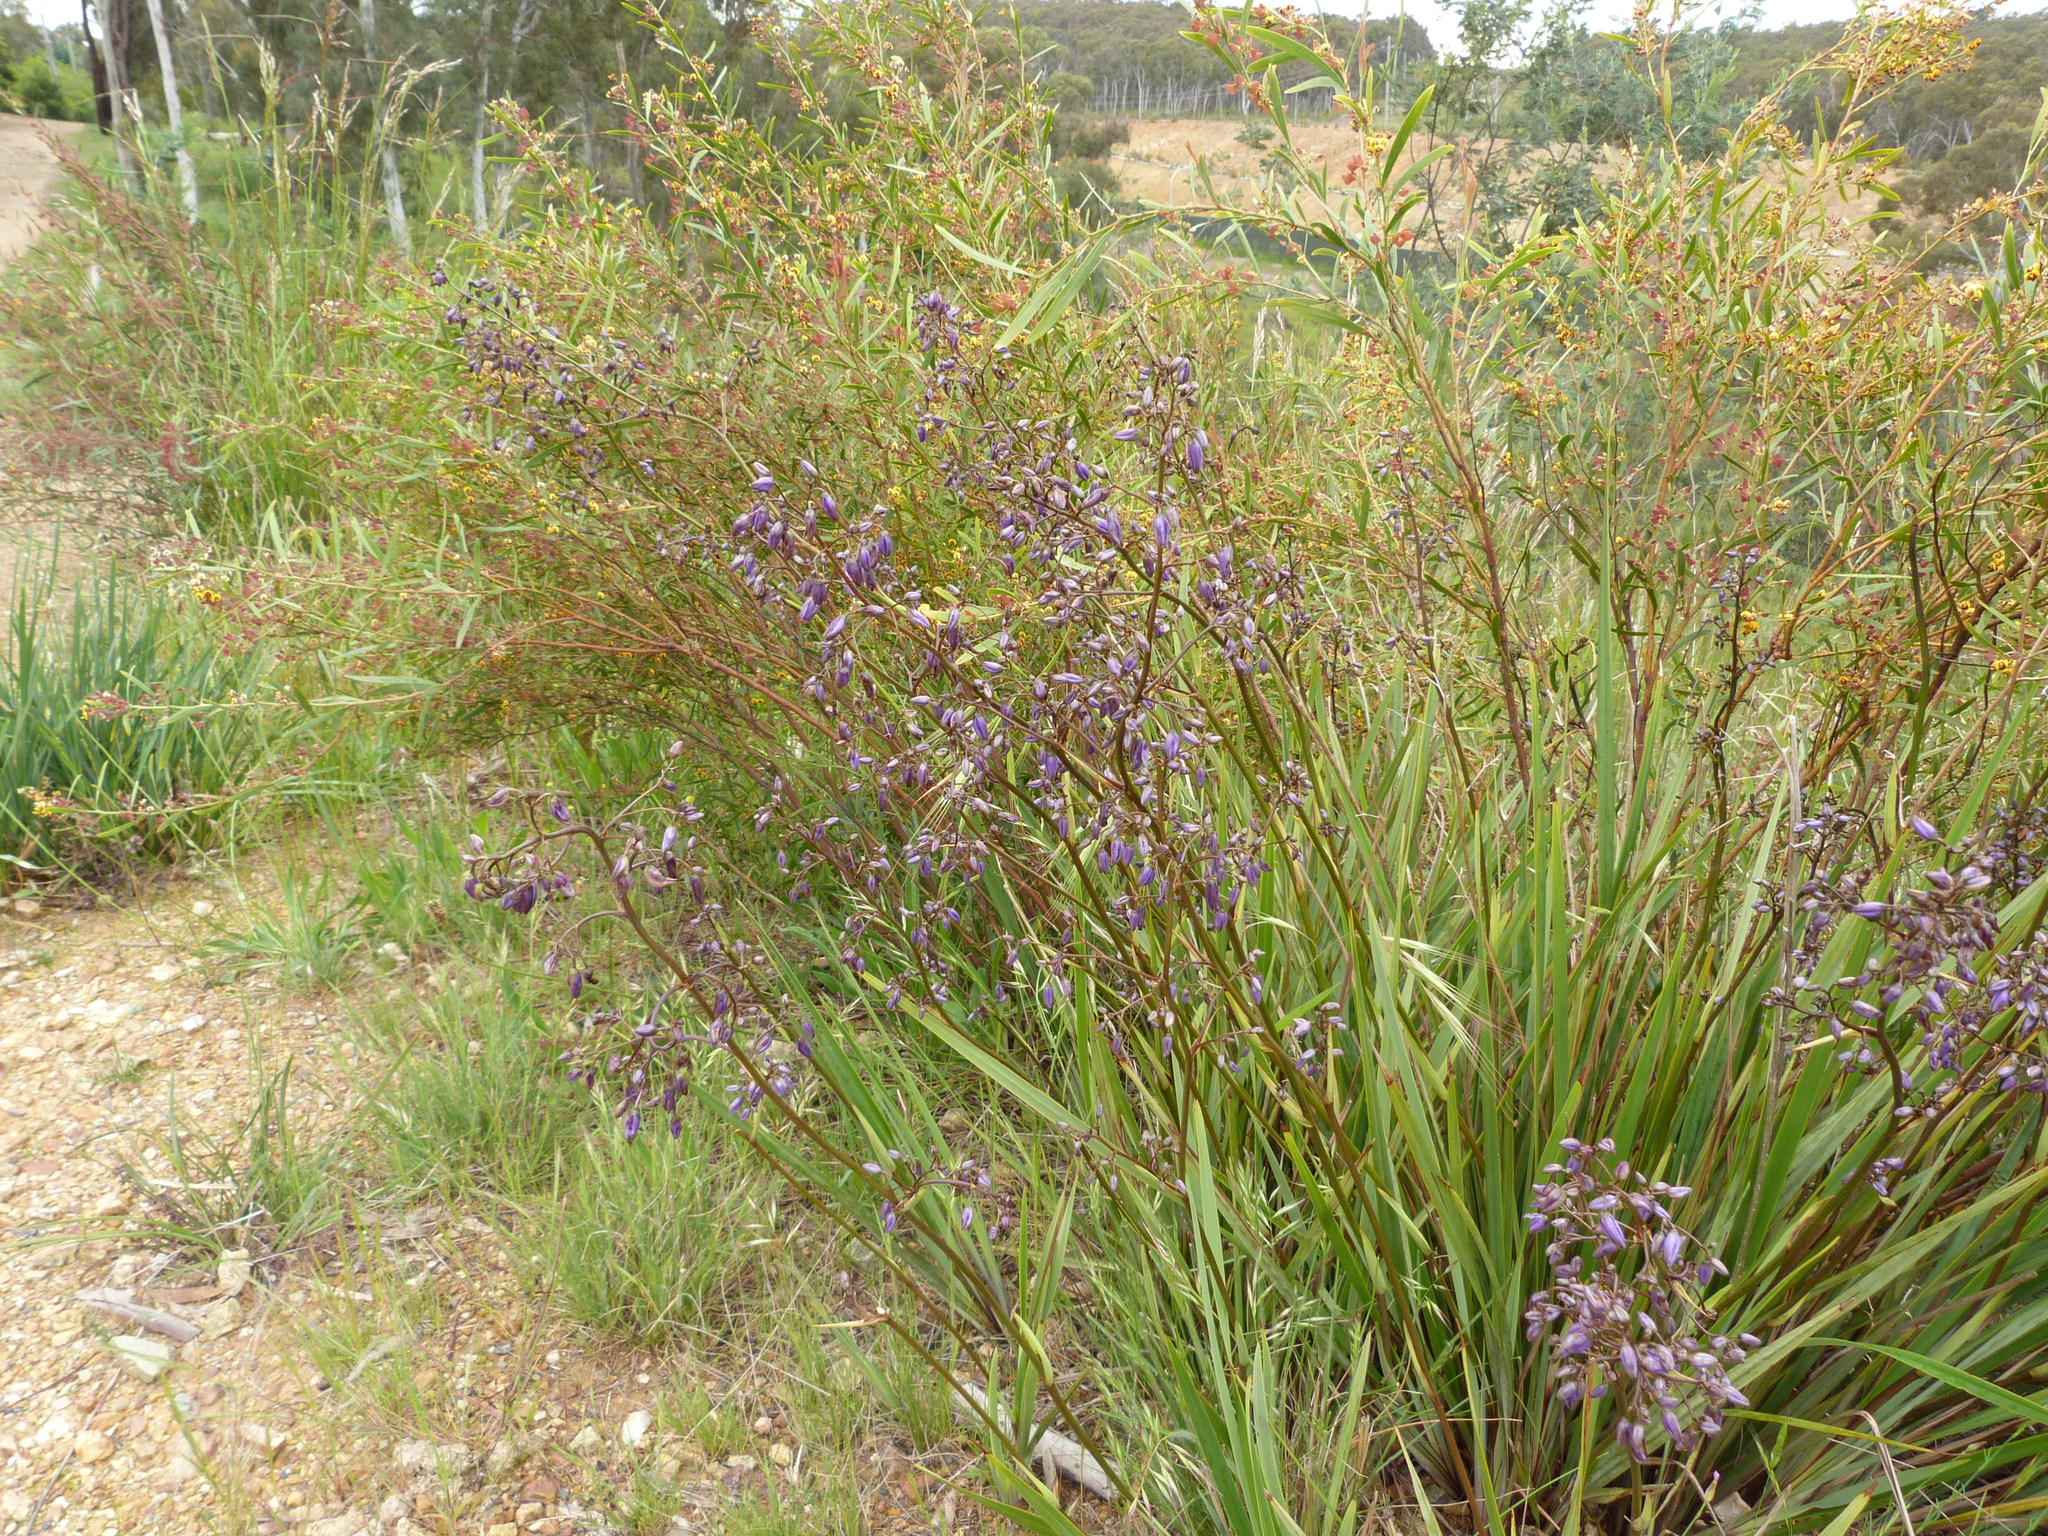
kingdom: Plantae
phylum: Tracheophyta
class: Liliopsida
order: Asparagales
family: Asphodelaceae
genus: Dianella
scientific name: Dianella revoluta
